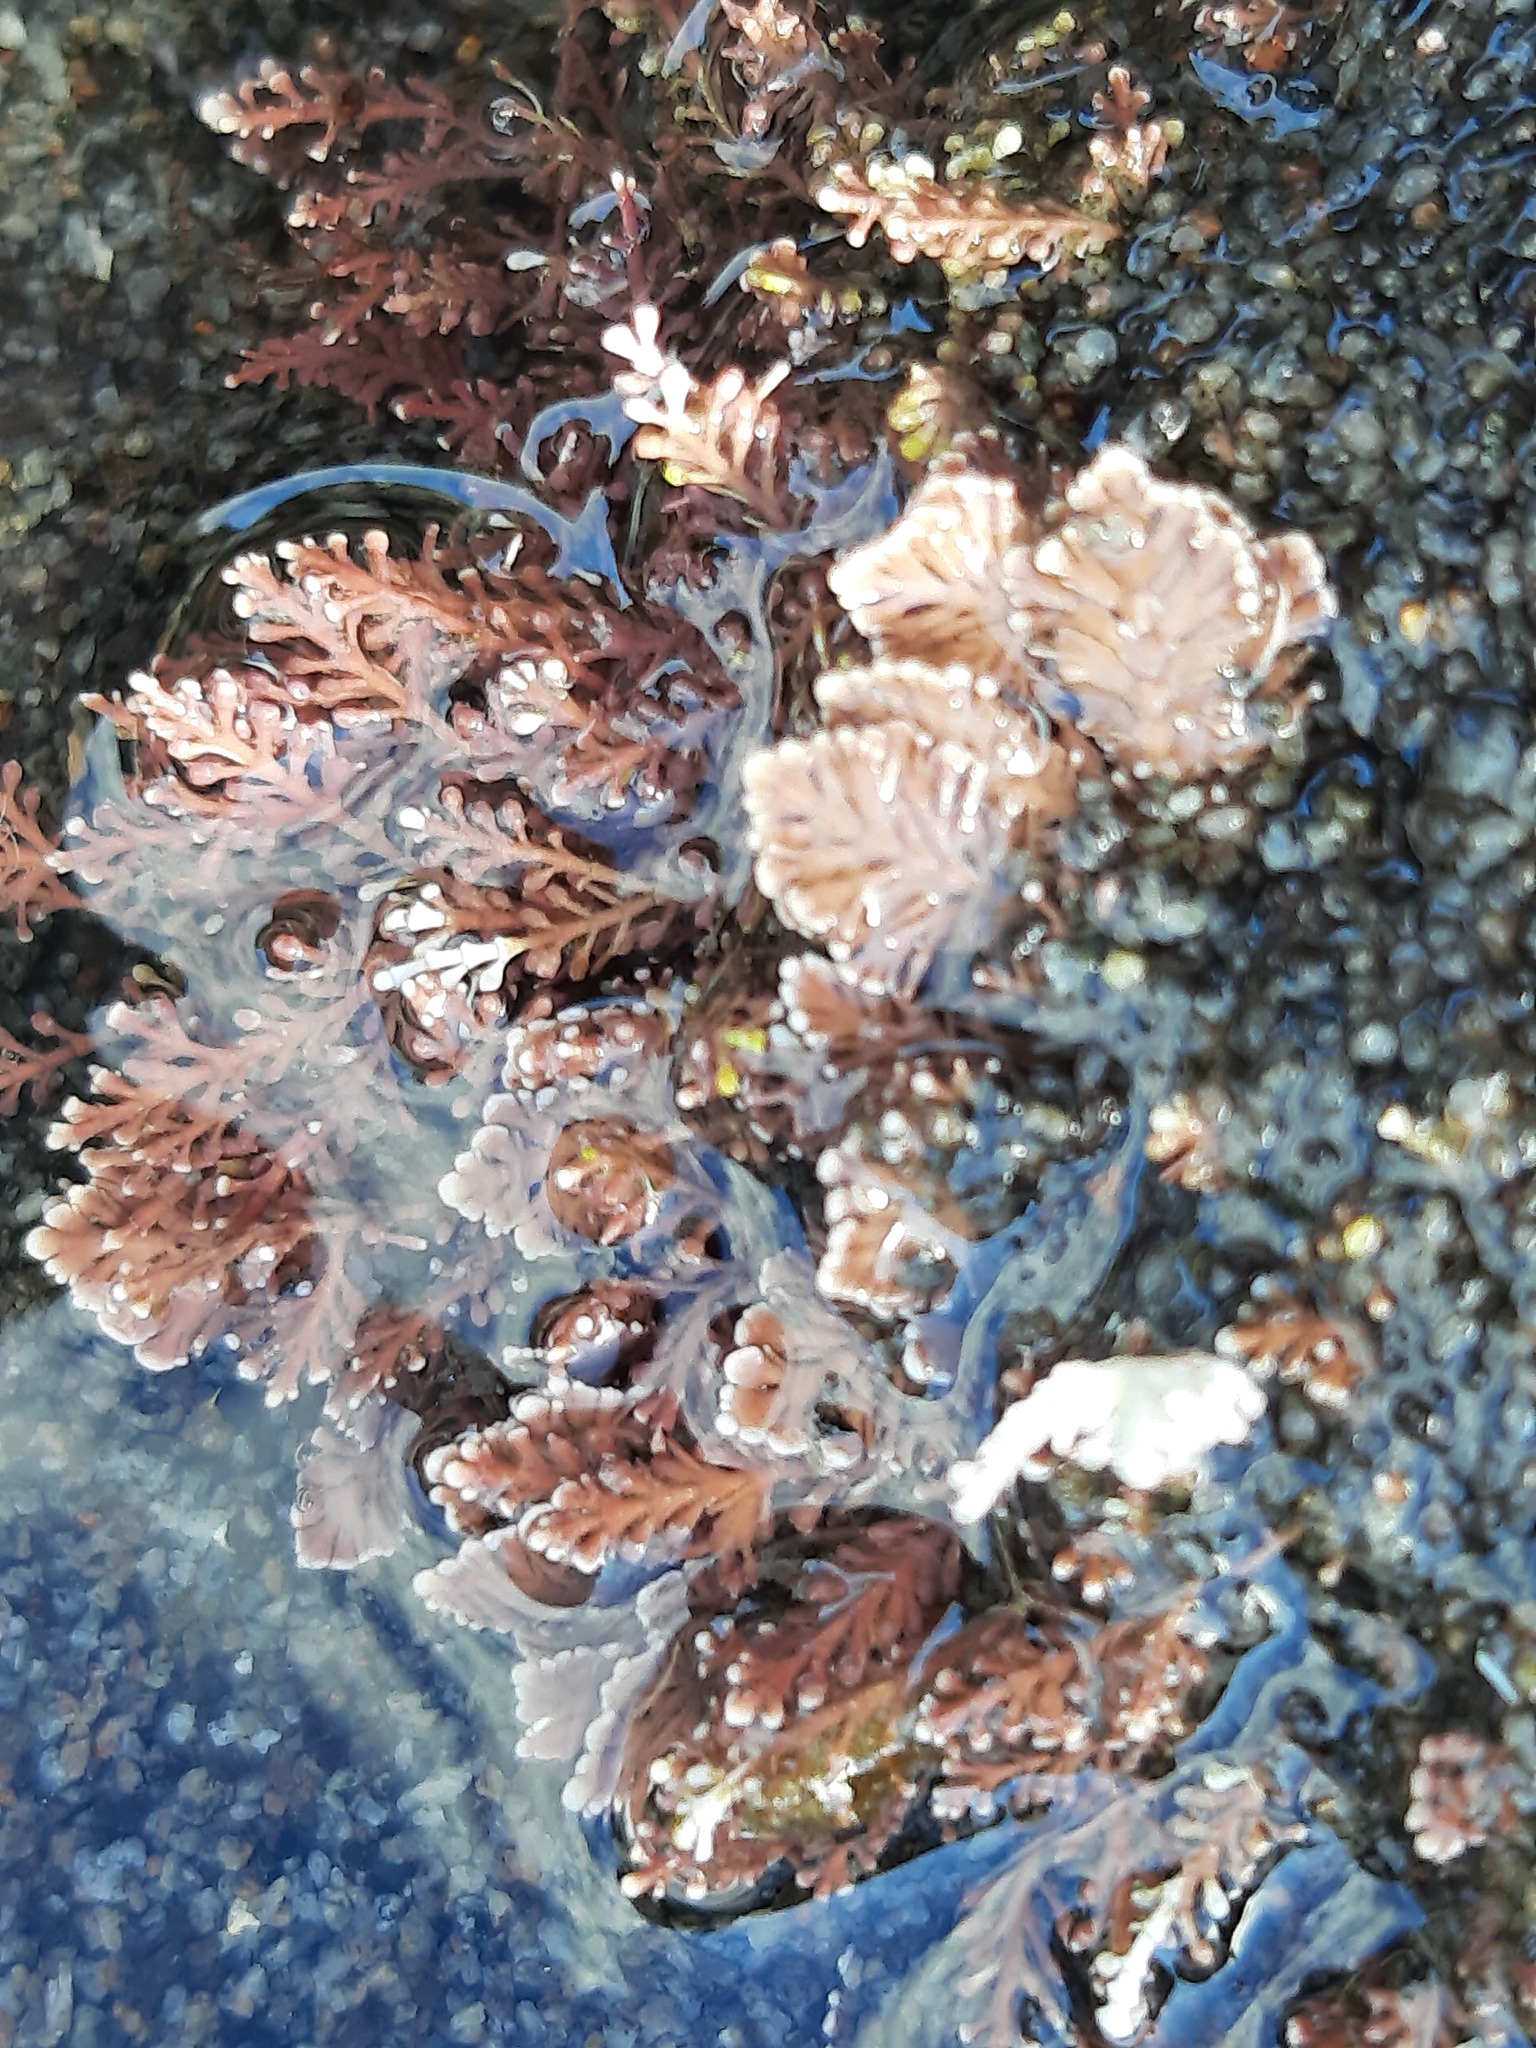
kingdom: Plantae
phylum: Rhodophyta
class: Florideophyceae
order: Corallinales
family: Corallinaceae
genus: Corallina
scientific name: Corallina officinalis
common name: Coral weed
